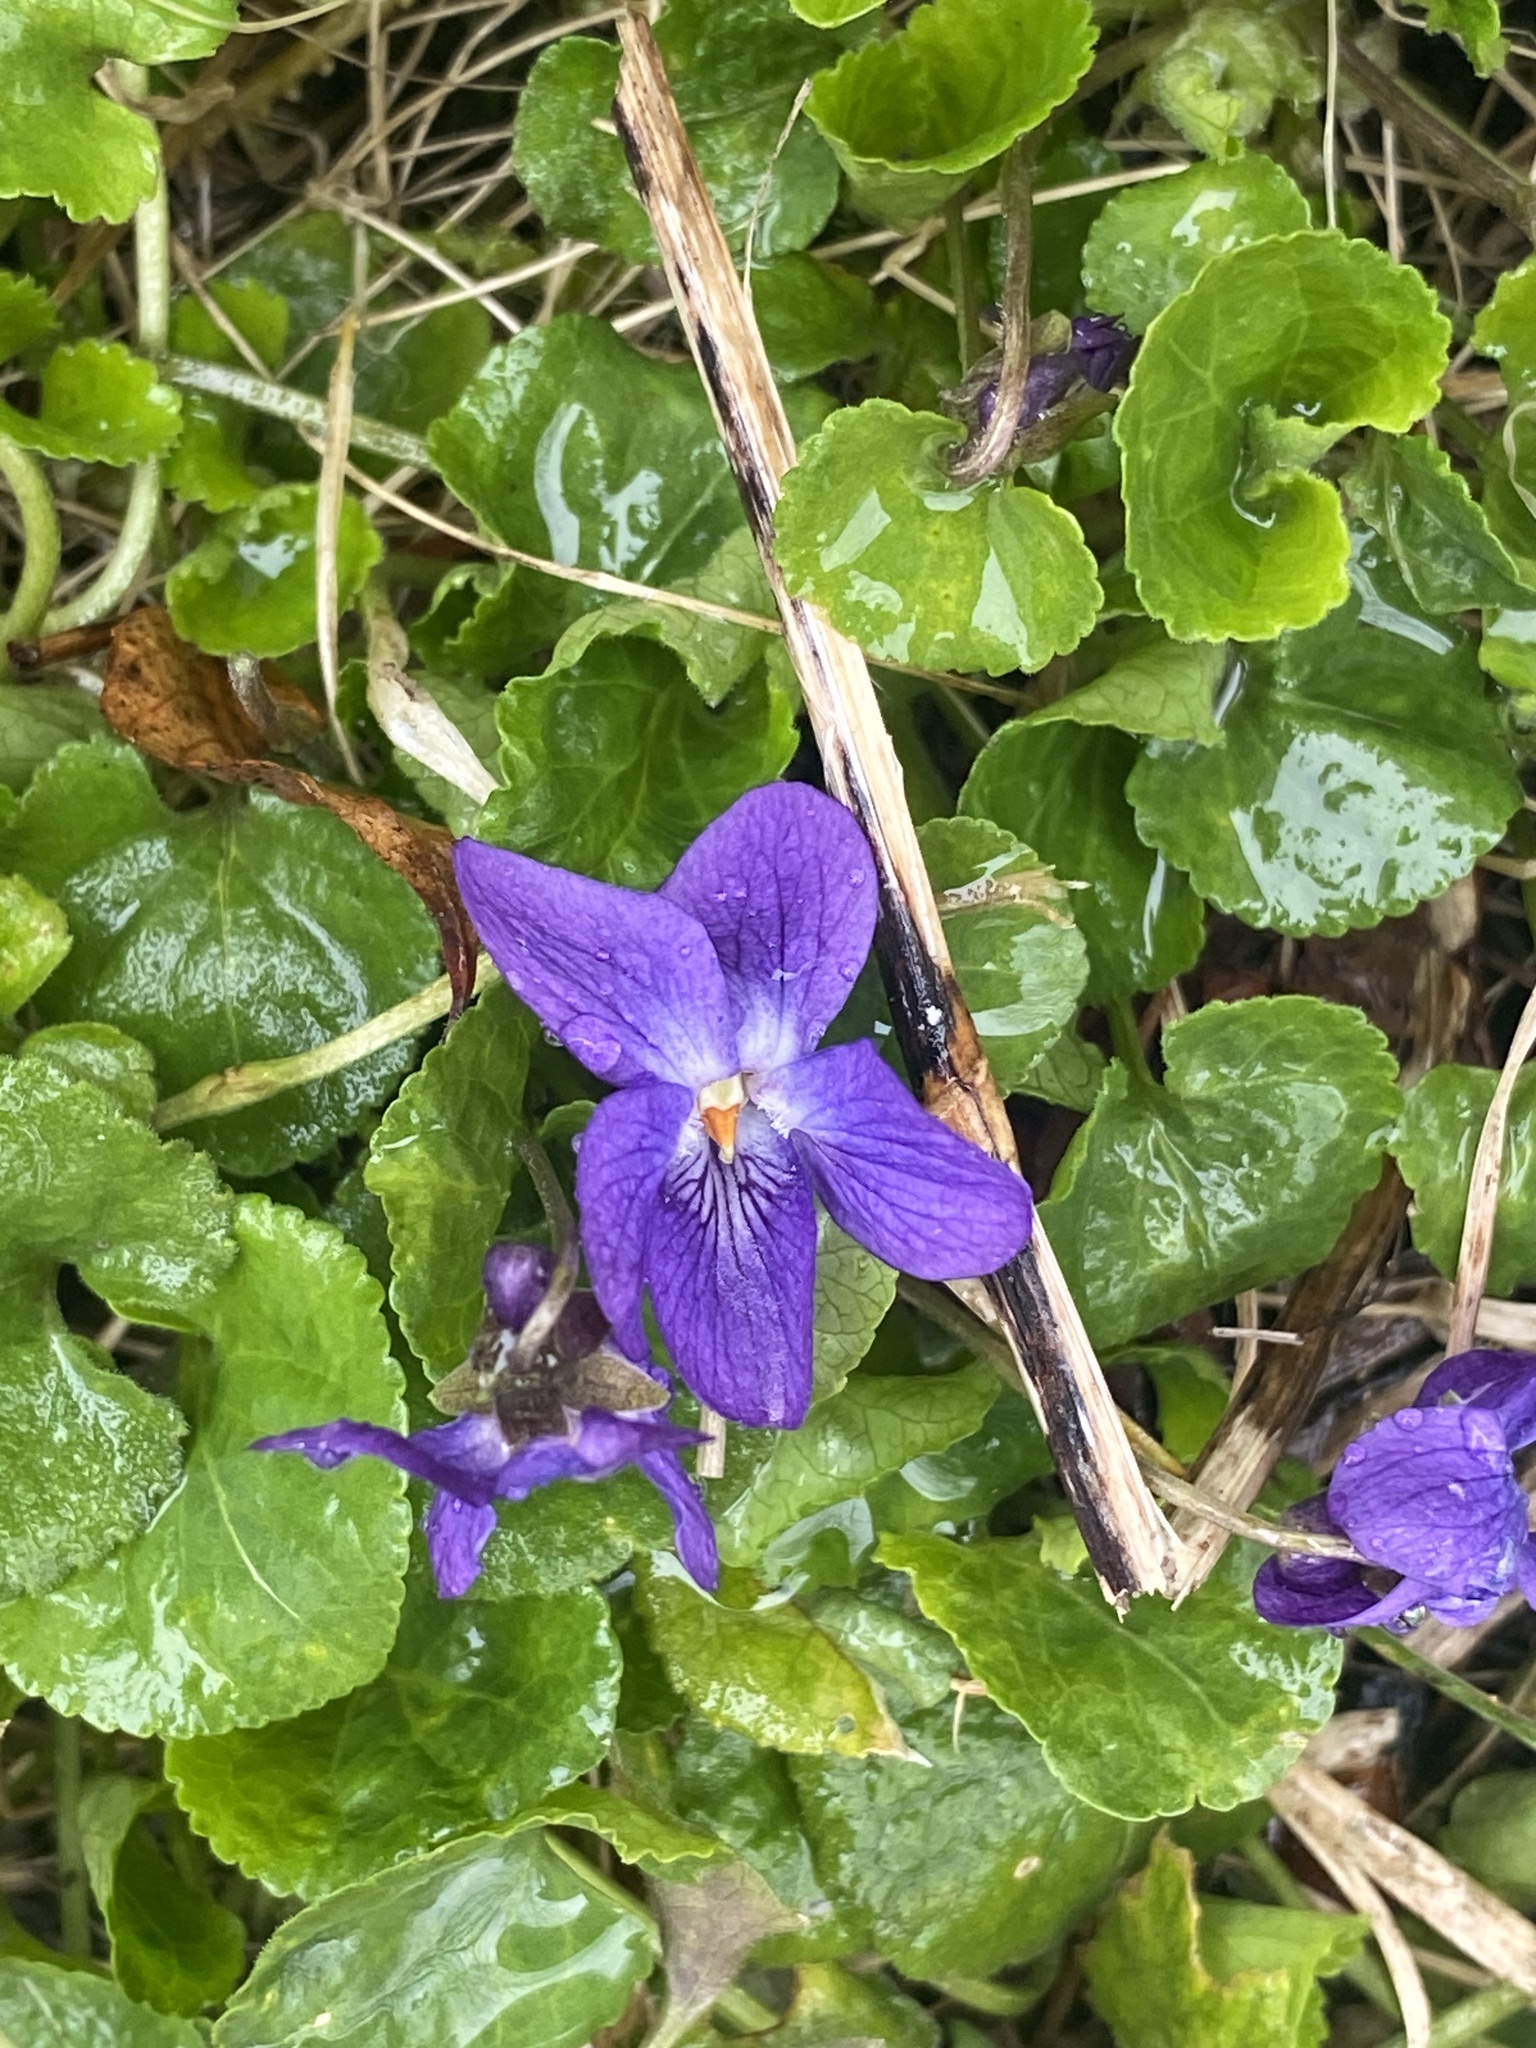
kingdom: Plantae
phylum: Tracheophyta
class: Magnoliopsida
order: Malpighiales
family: Violaceae
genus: Viola
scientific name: Viola odorata
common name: Sweet violet
